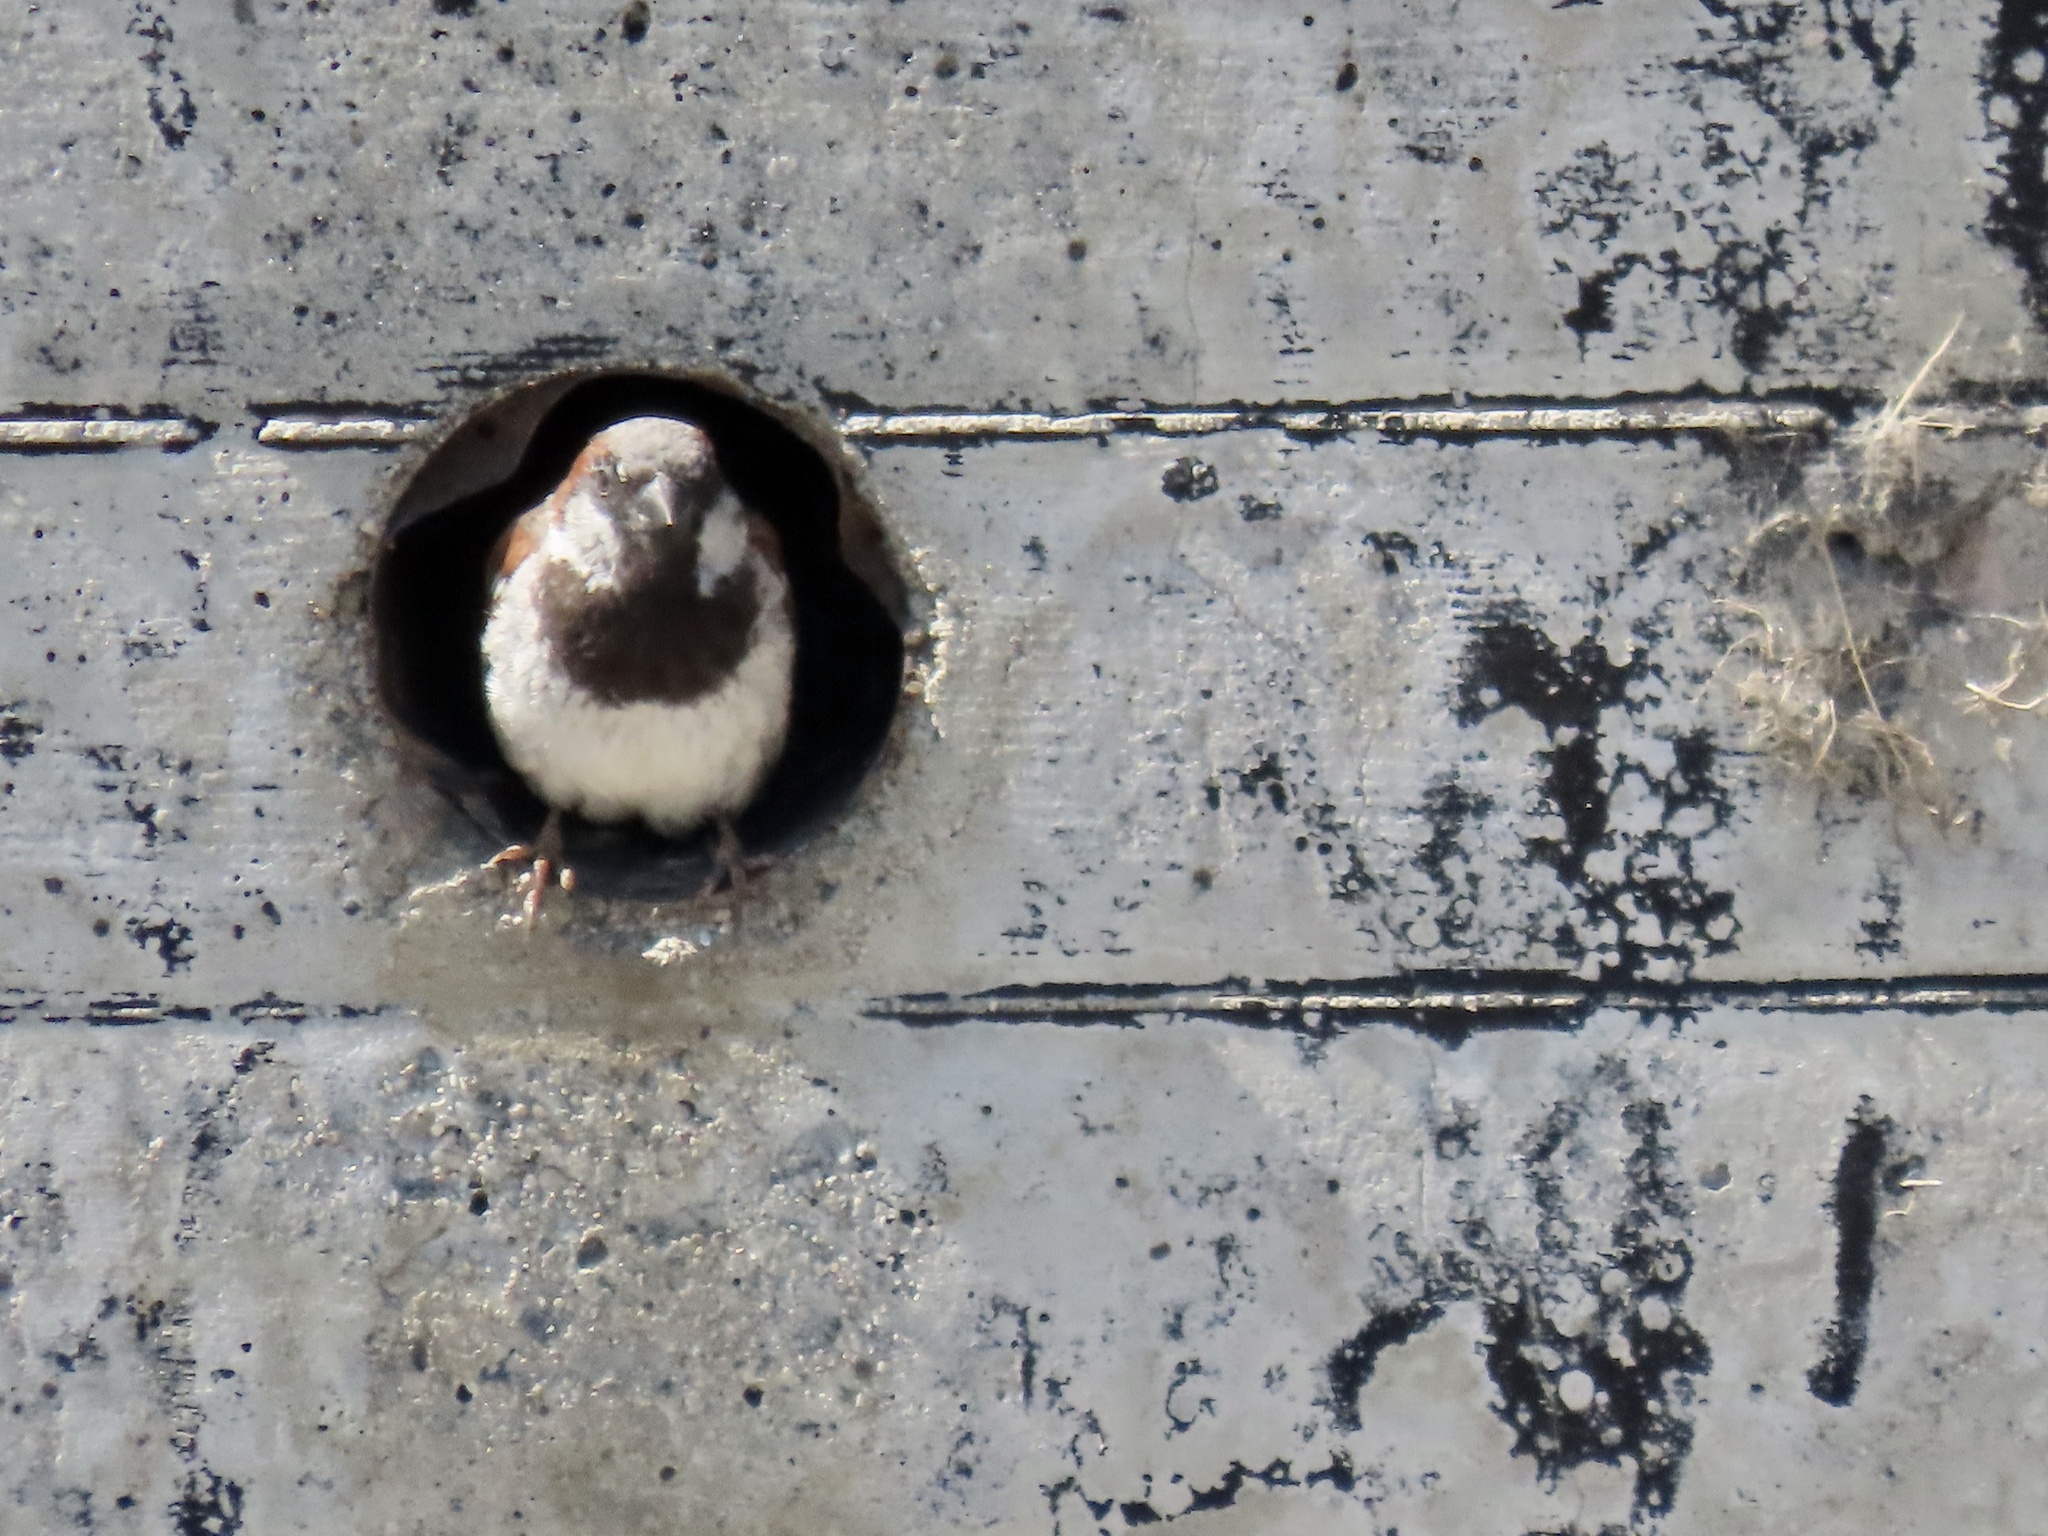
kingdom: Animalia
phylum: Chordata
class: Aves
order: Passeriformes
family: Passeridae
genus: Passer
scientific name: Passer domesticus
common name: House sparrow
